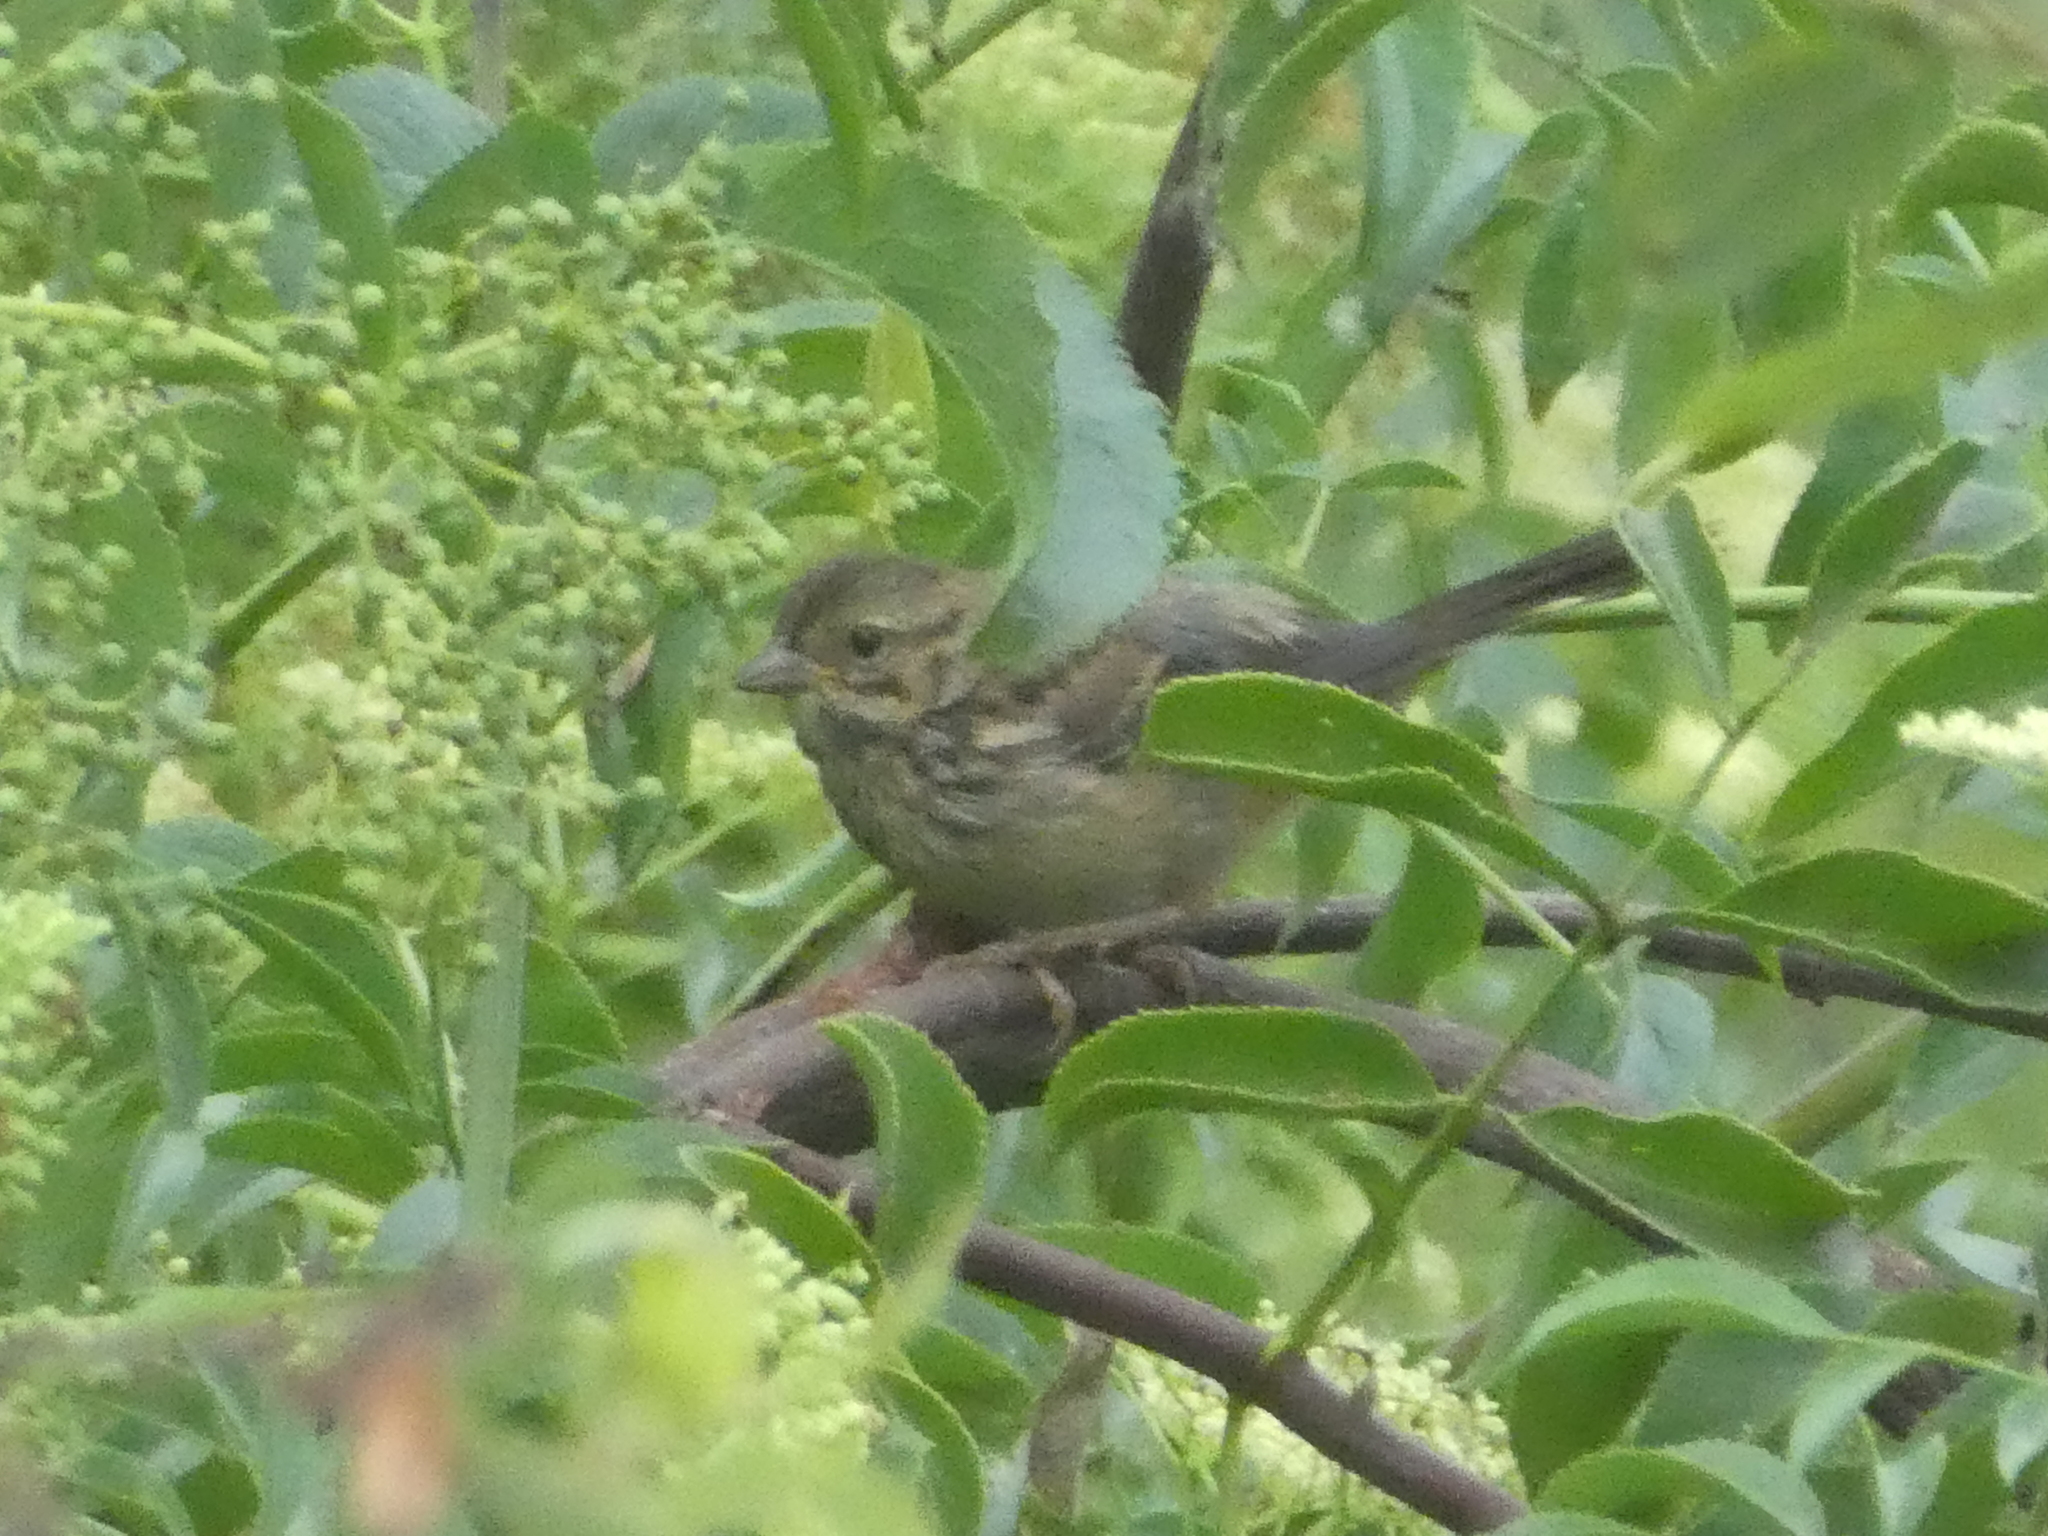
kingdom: Animalia
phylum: Chordata
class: Aves
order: Passeriformes
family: Passerellidae
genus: Melospiza
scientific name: Melospiza melodia
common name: Song sparrow
